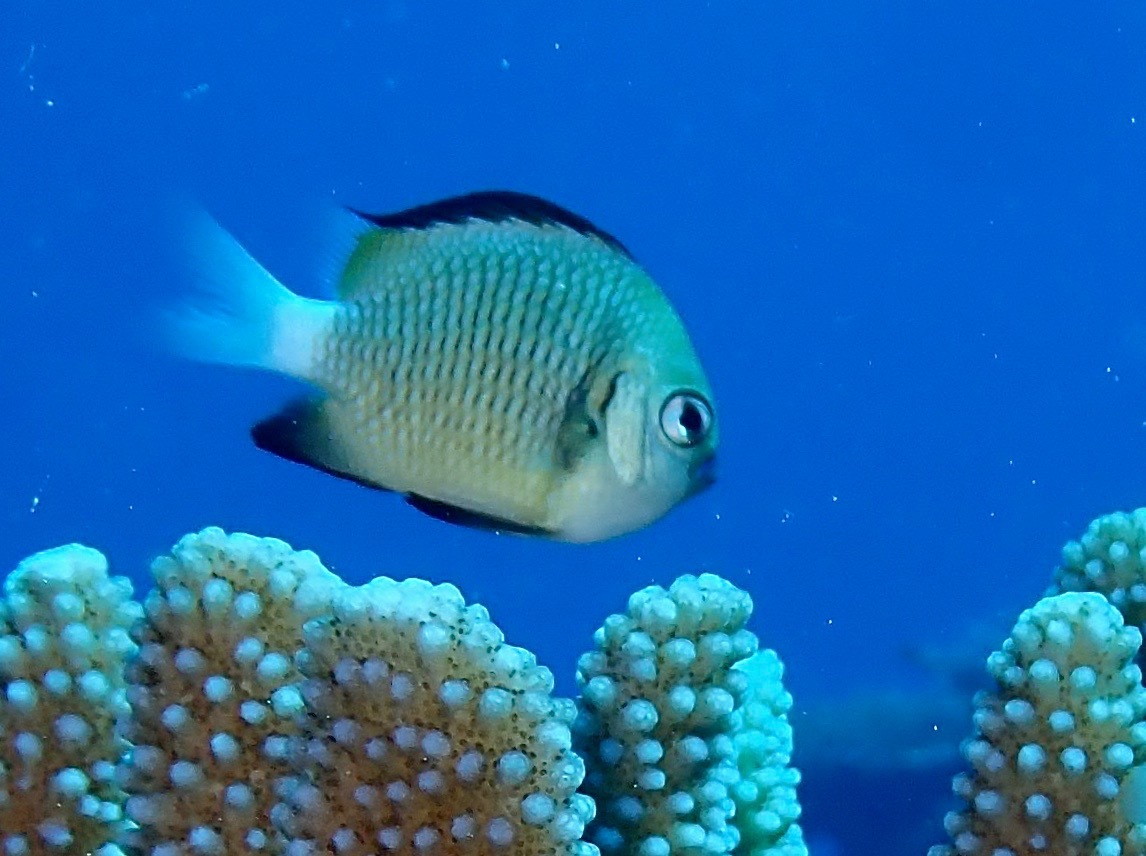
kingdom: Animalia
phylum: Chordata
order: Perciformes
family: Pomacentridae
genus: Dascyllus
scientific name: Dascyllus reticulatus
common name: Reticulated dascyllus
